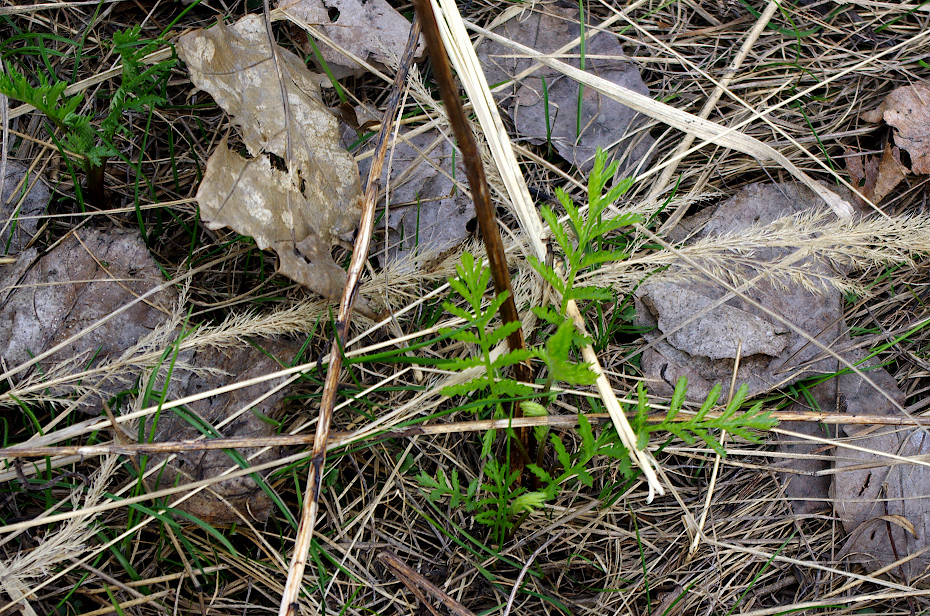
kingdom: Plantae
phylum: Tracheophyta
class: Magnoliopsida
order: Asterales
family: Asteraceae
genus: Tanacetum
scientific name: Tanacetum vulgare
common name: Common tansy
